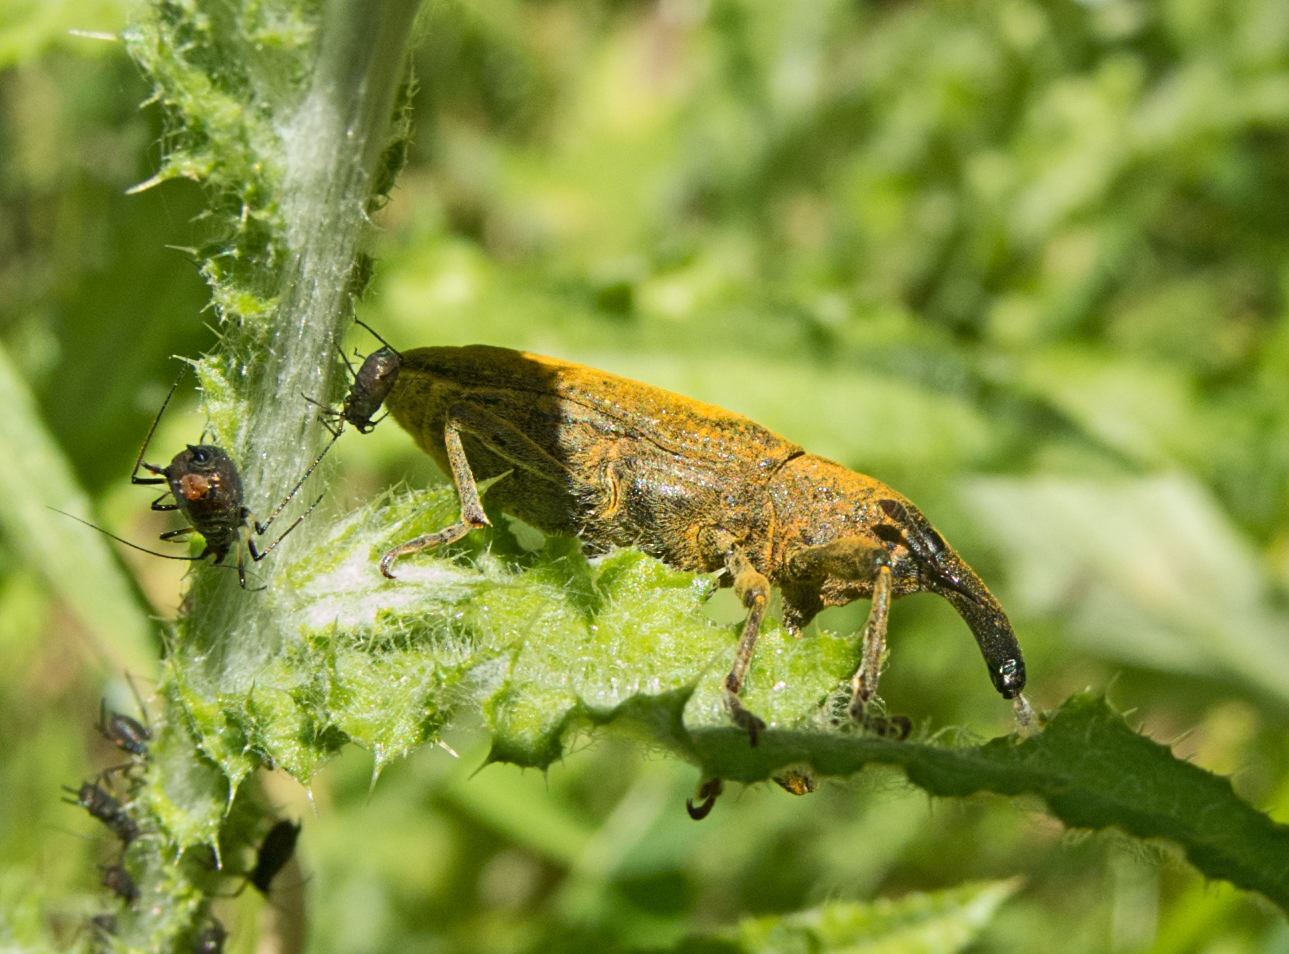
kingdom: Animalia
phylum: Arthropoda
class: Insecta
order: Coleoptera
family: Curculionidae
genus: Lixus
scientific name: Lixus pulverulentus
